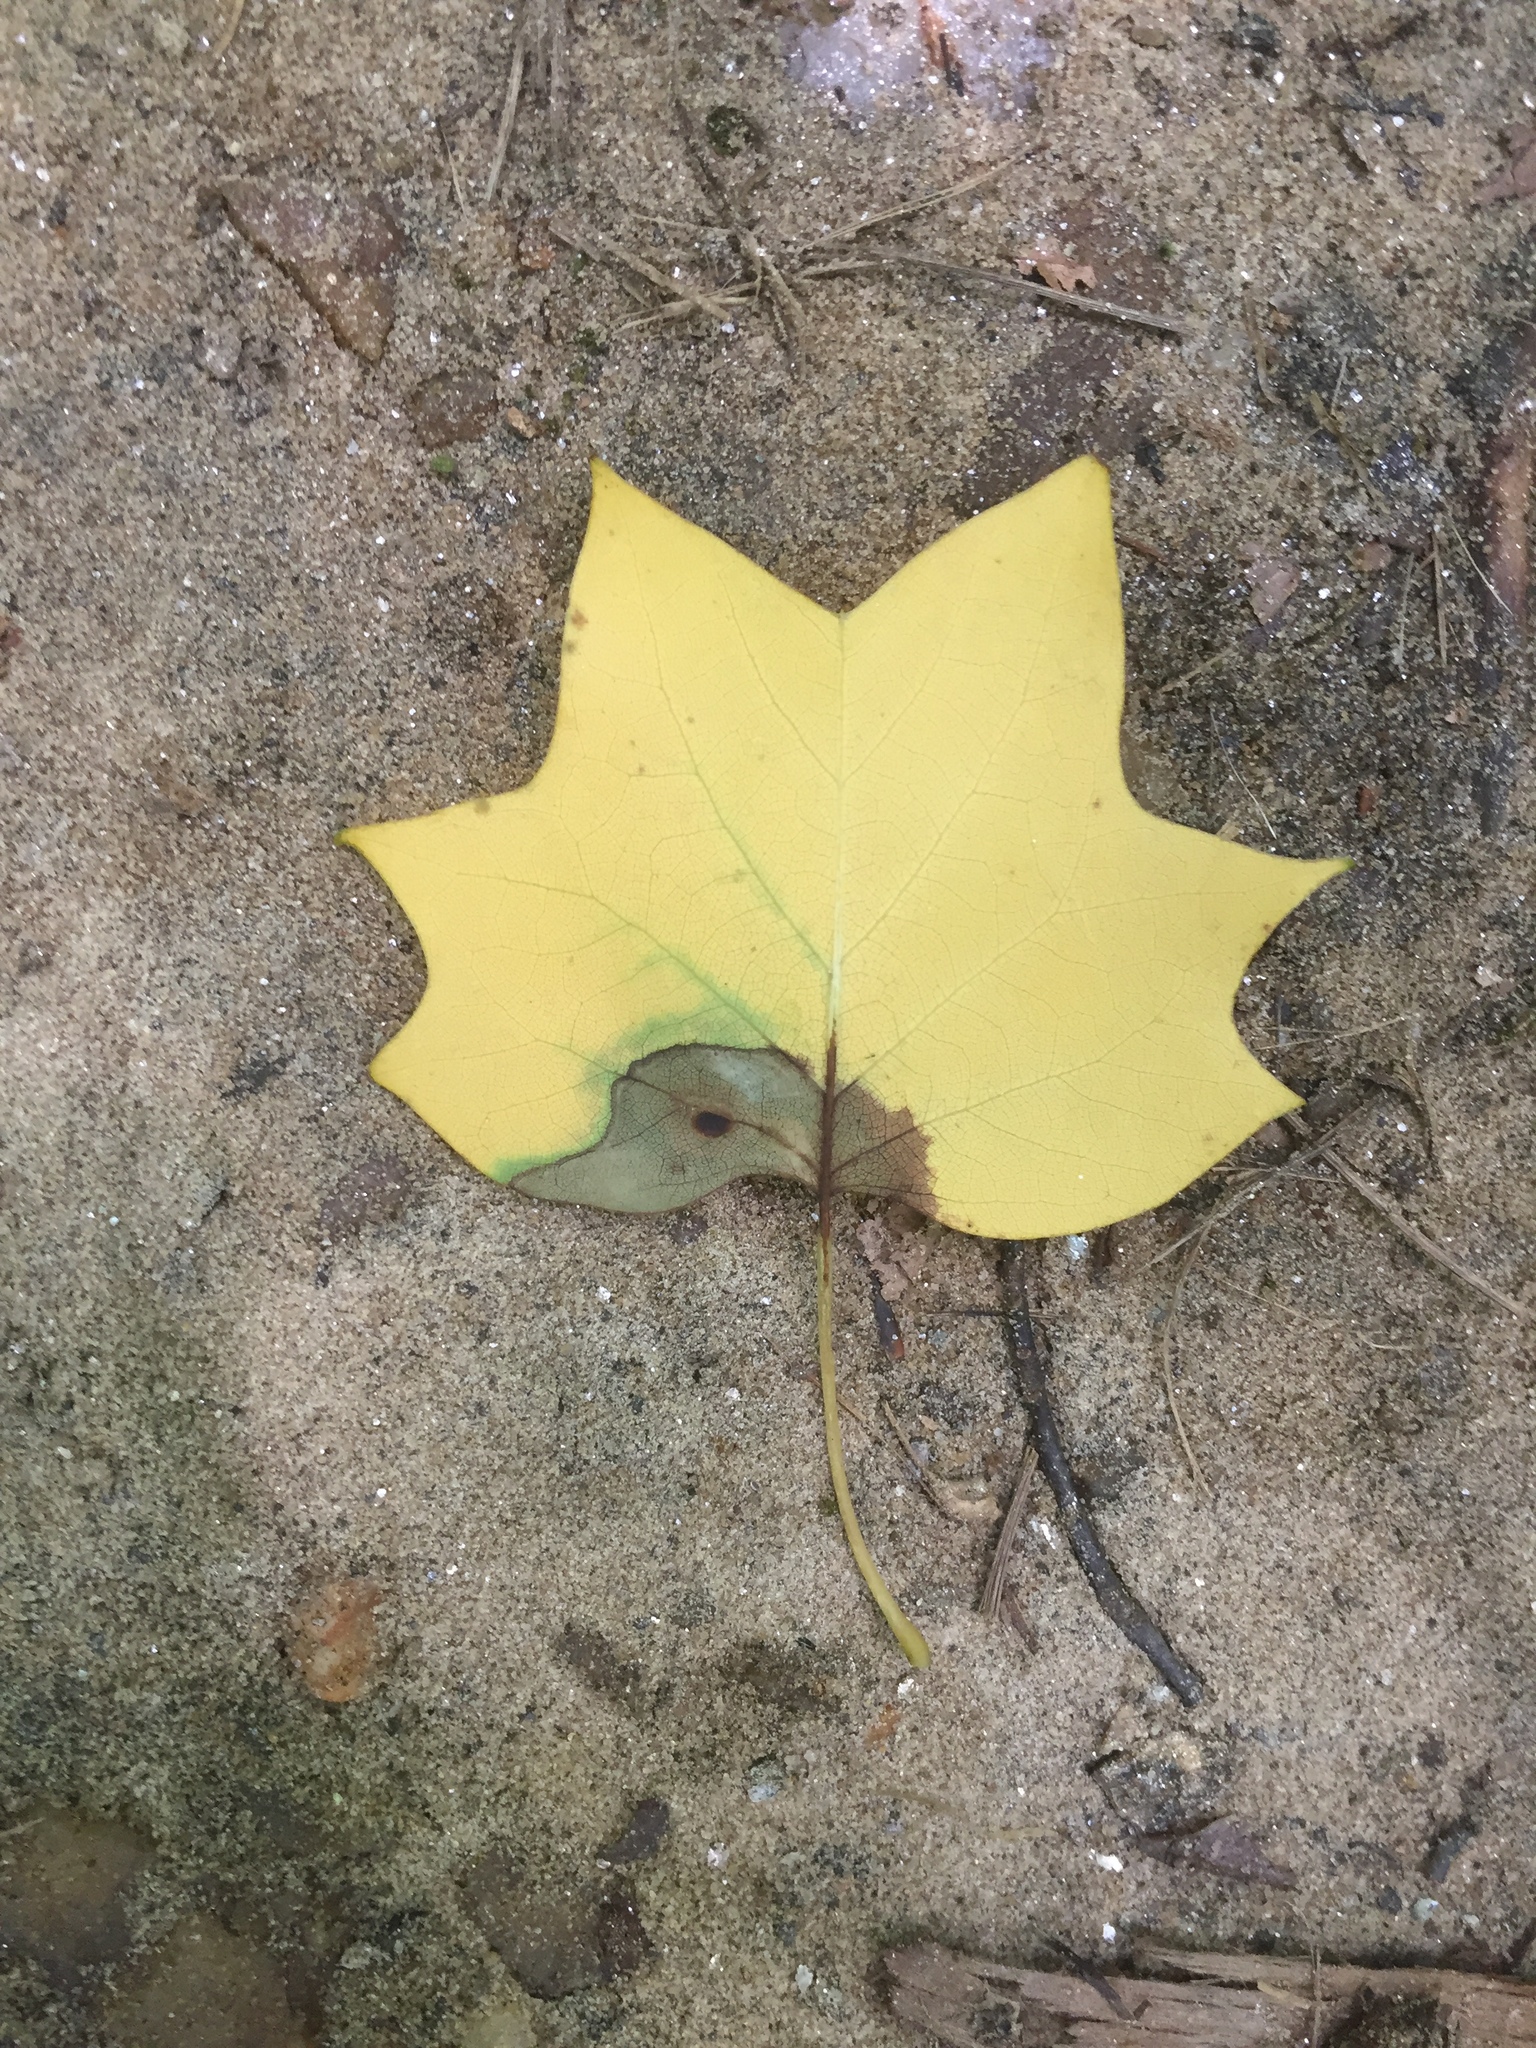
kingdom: Plantae
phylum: Tracheophyta
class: Magnoliopsida
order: Magnoliales
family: Magnoliaceae
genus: Liriodendron
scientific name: Liriodendron tulipifera
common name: Tulip tree
